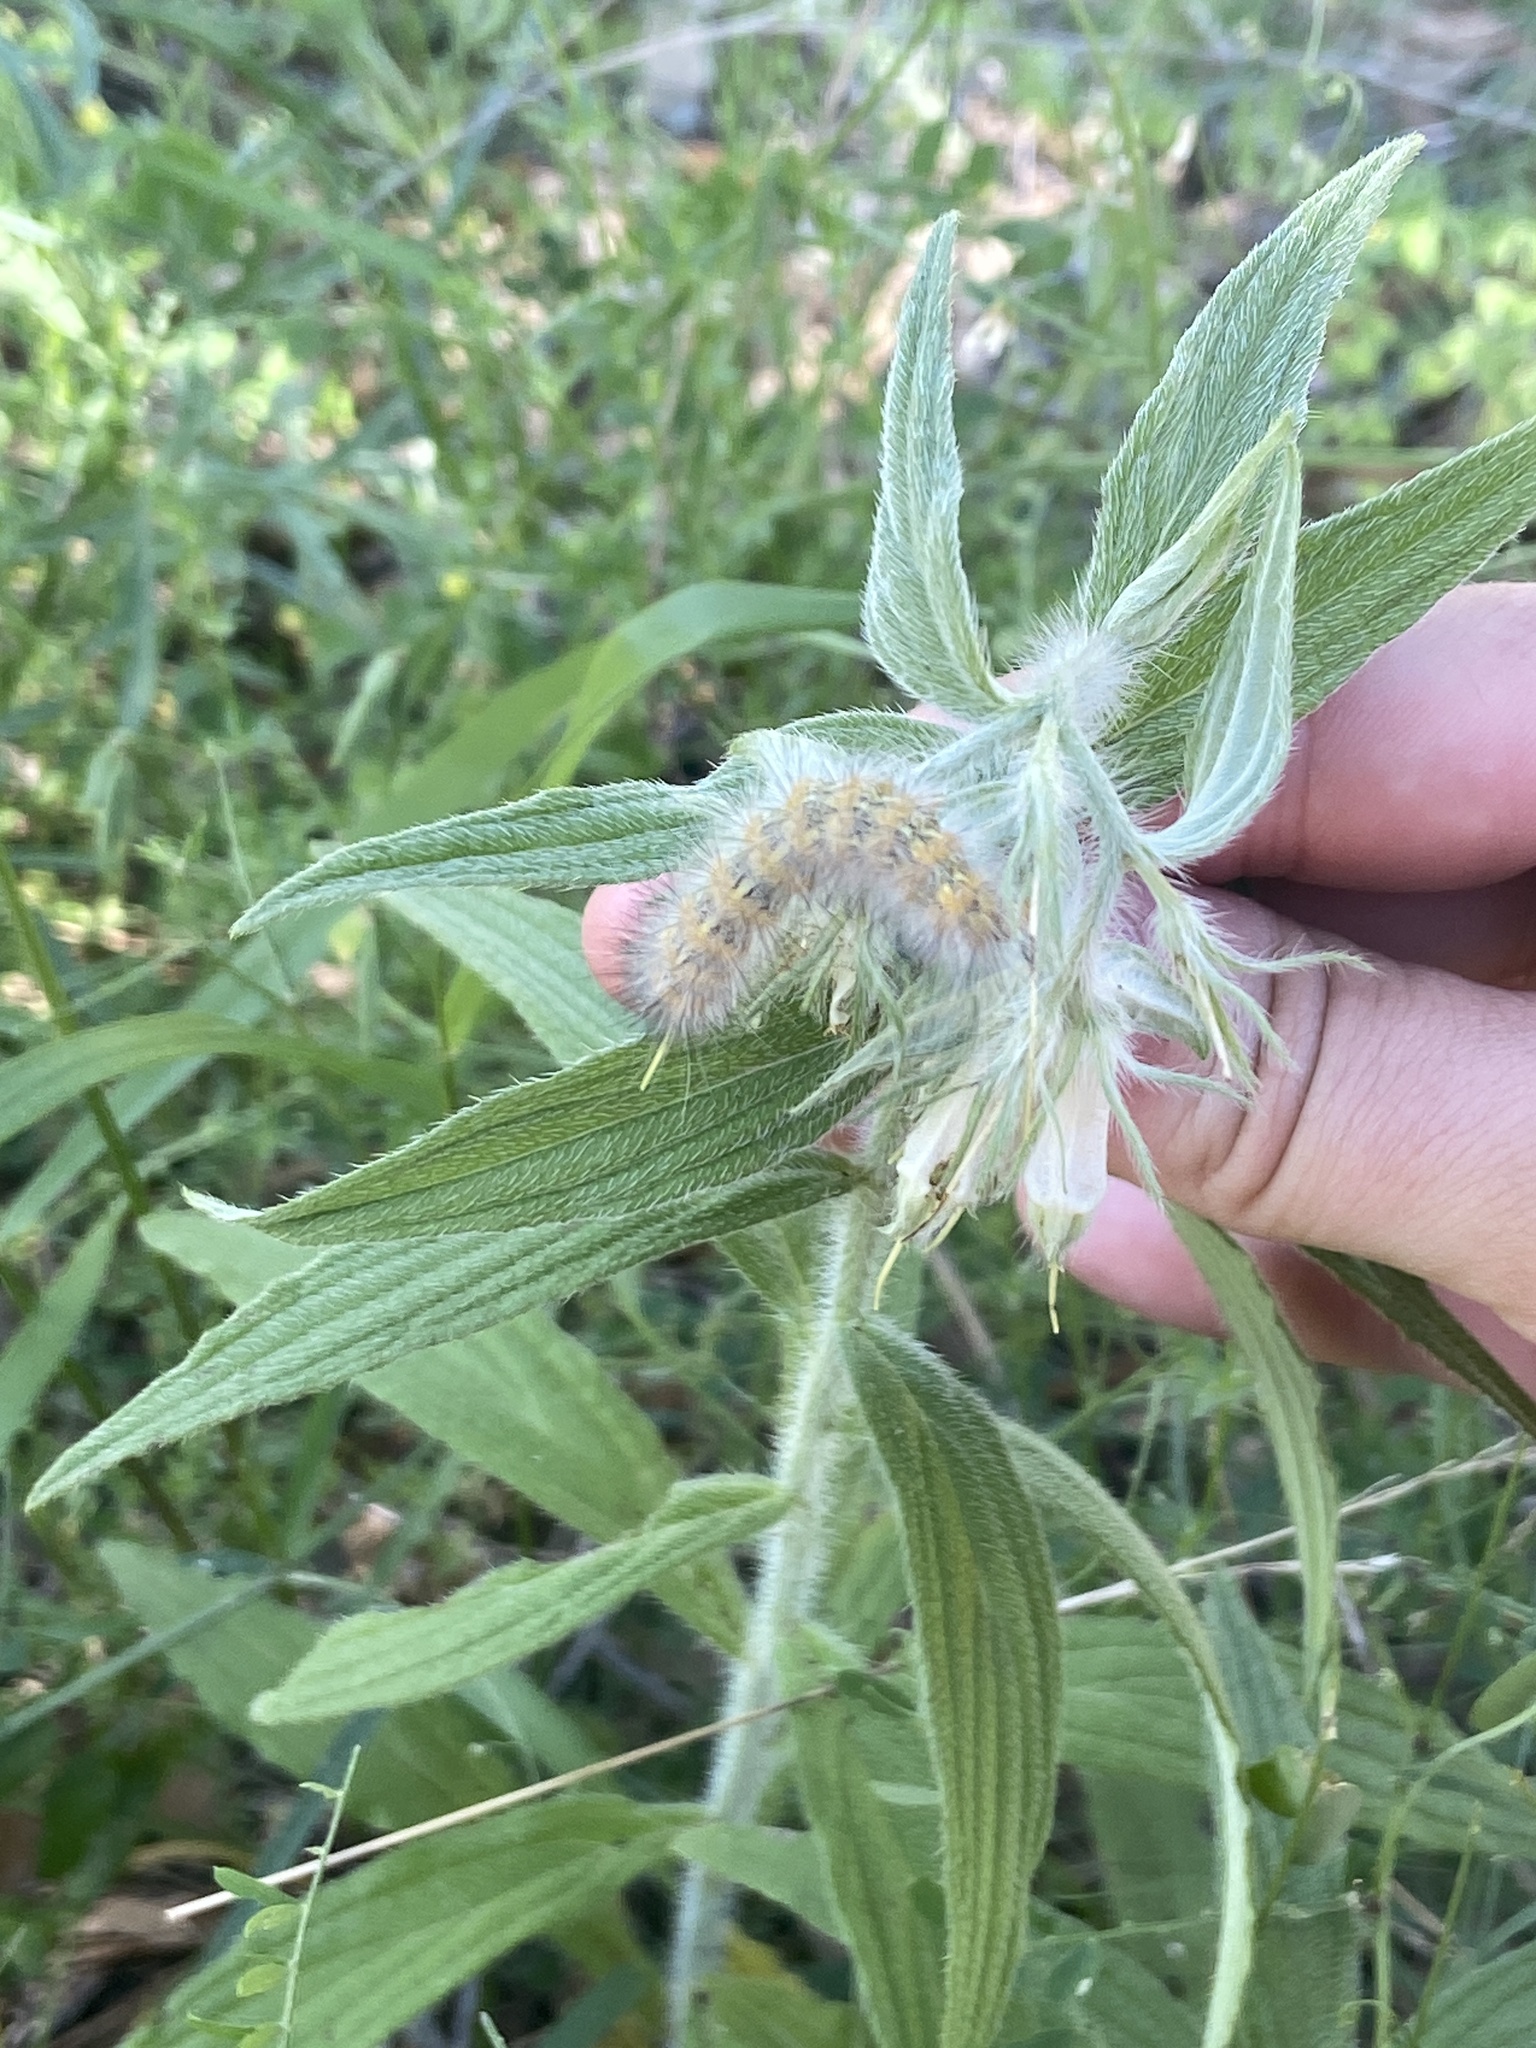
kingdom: Animalia
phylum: Arthropoda
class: Insecta
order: Lepidoptera
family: Erebidae
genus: Estigmene
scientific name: Estigmene acrea
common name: Salt marsh moth
